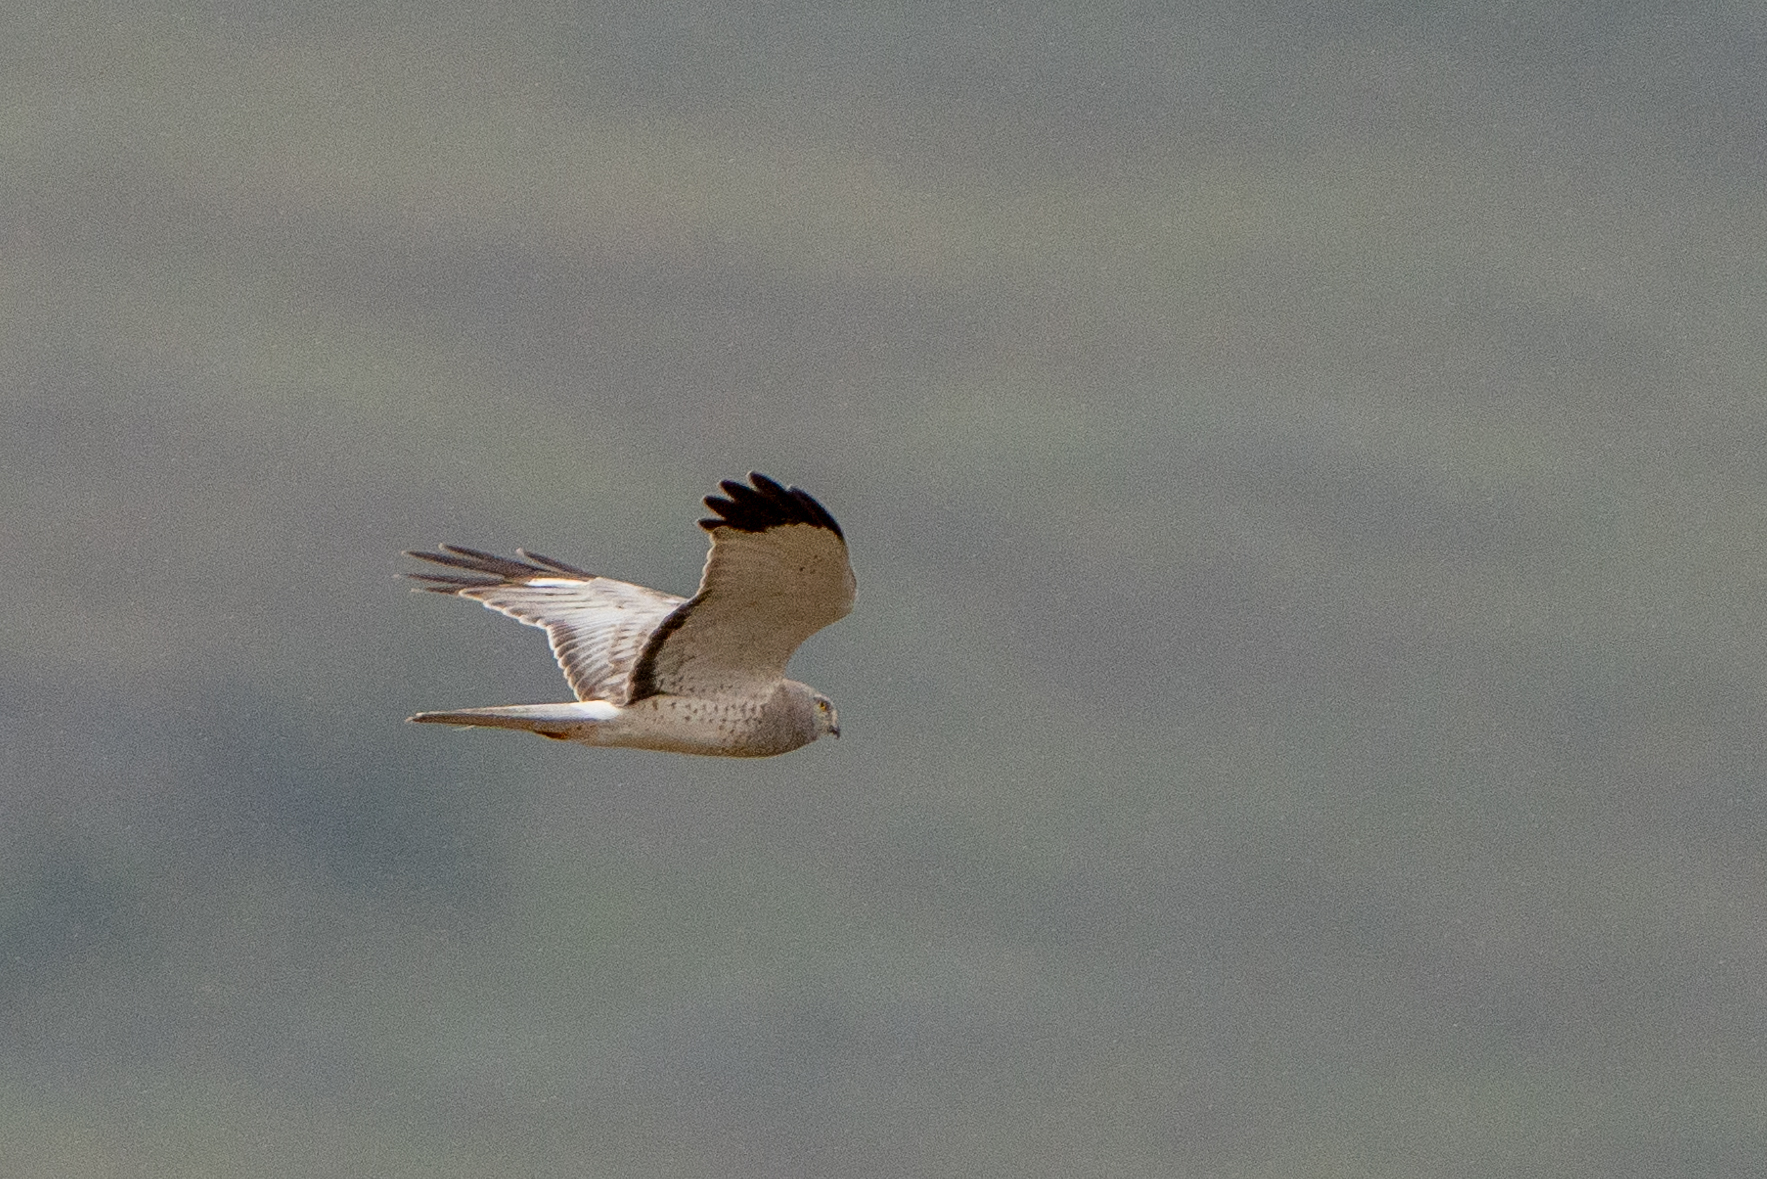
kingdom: Animalia
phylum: Chordata
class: Aves
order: Accipitriformes
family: Accipitridae
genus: Circus
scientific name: Circus cyaneus
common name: Hen harrier
